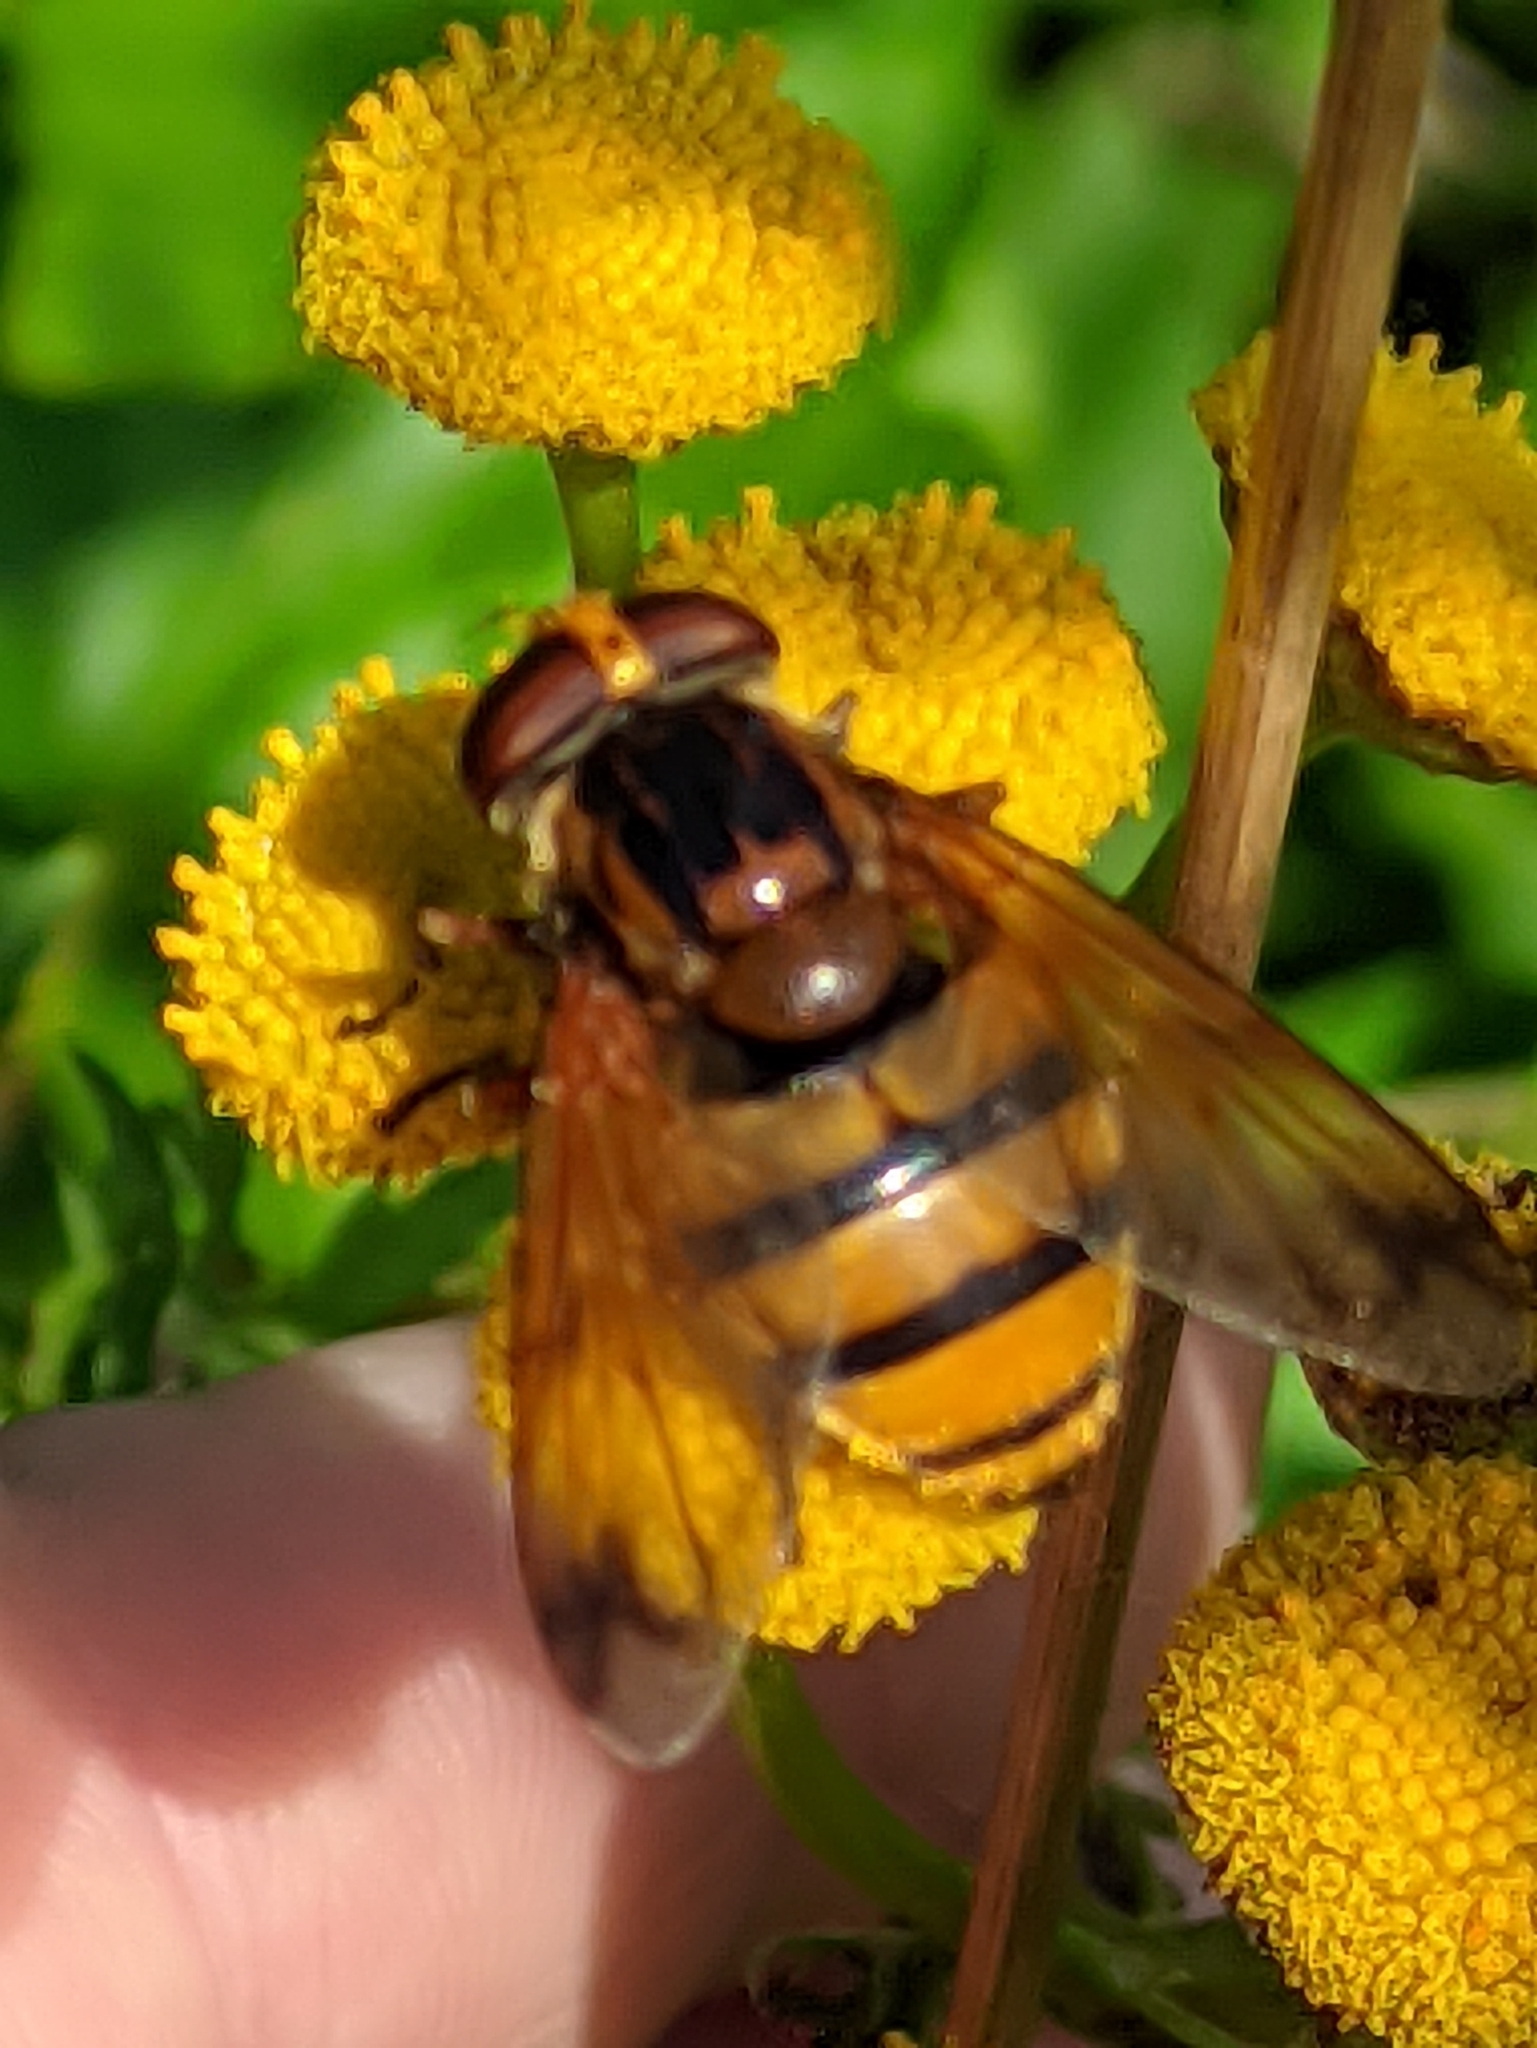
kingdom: Animalia
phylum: Arthropoda
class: Insecta
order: Diptera
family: Syrphidae
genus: Volucella
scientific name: Volucella inanis
